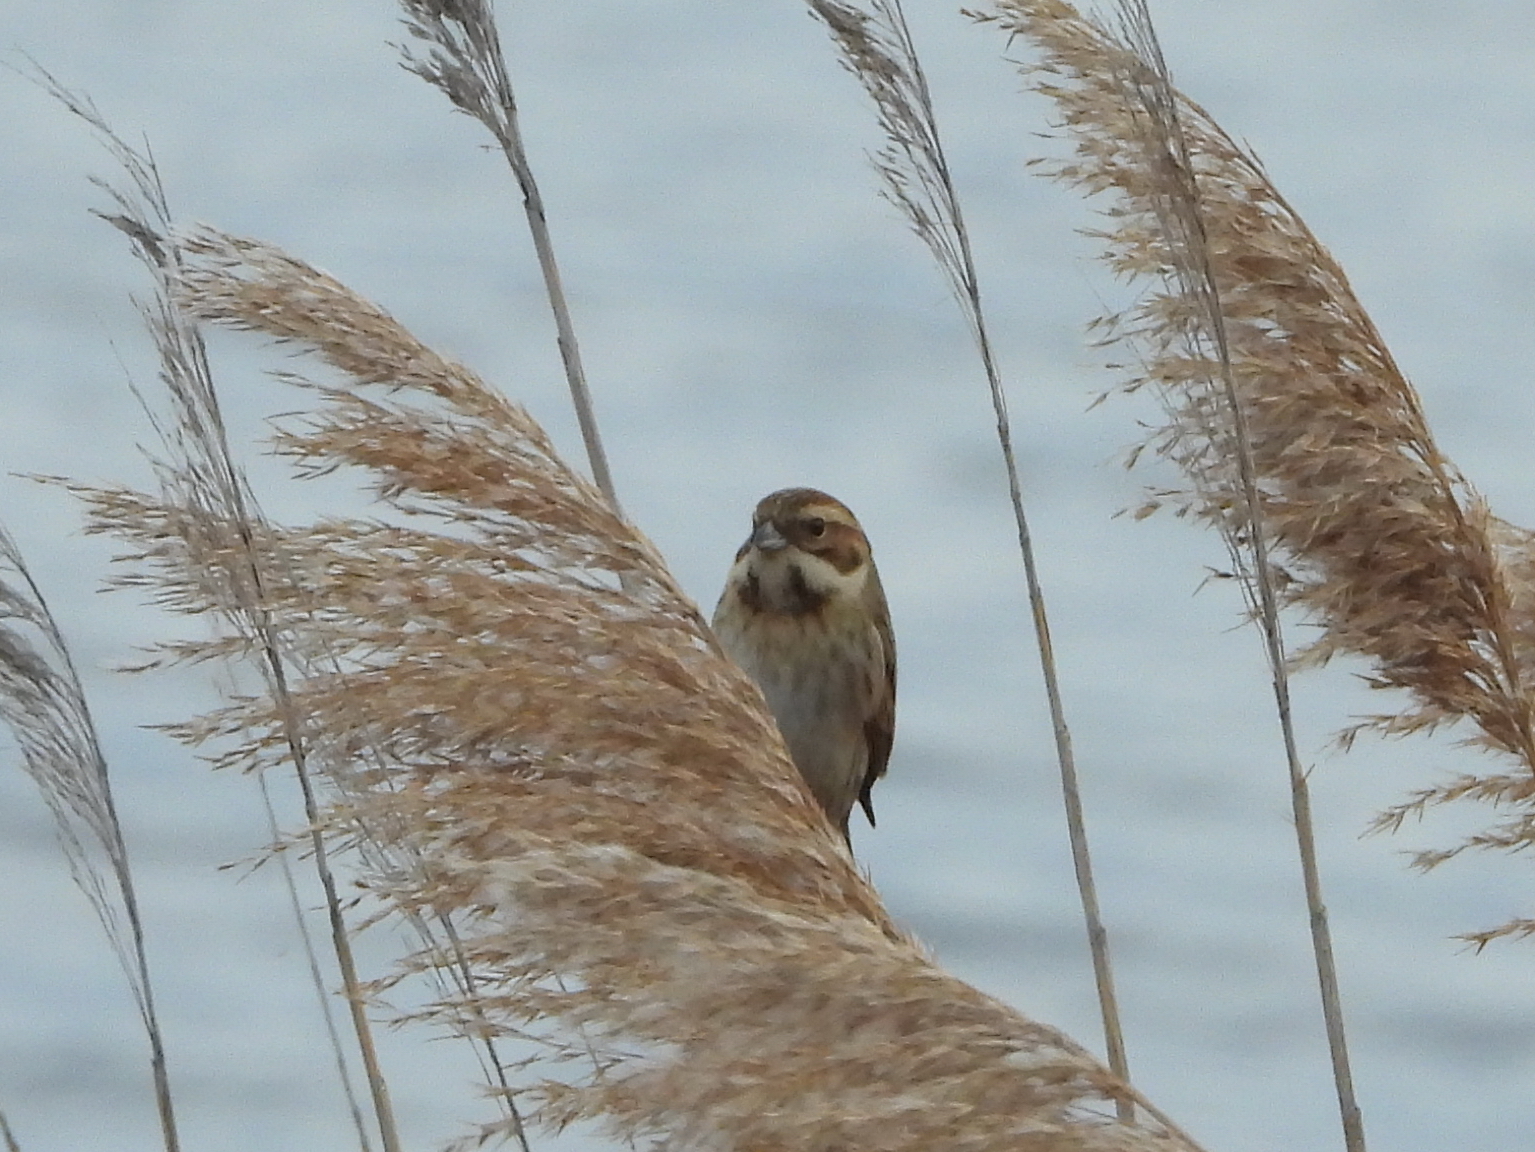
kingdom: Animalia
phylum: Chordata
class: Aves
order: Passeriformes
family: Emberizidae
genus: Emberiza
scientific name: Emberiza schoeniclus
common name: Reed bunting
